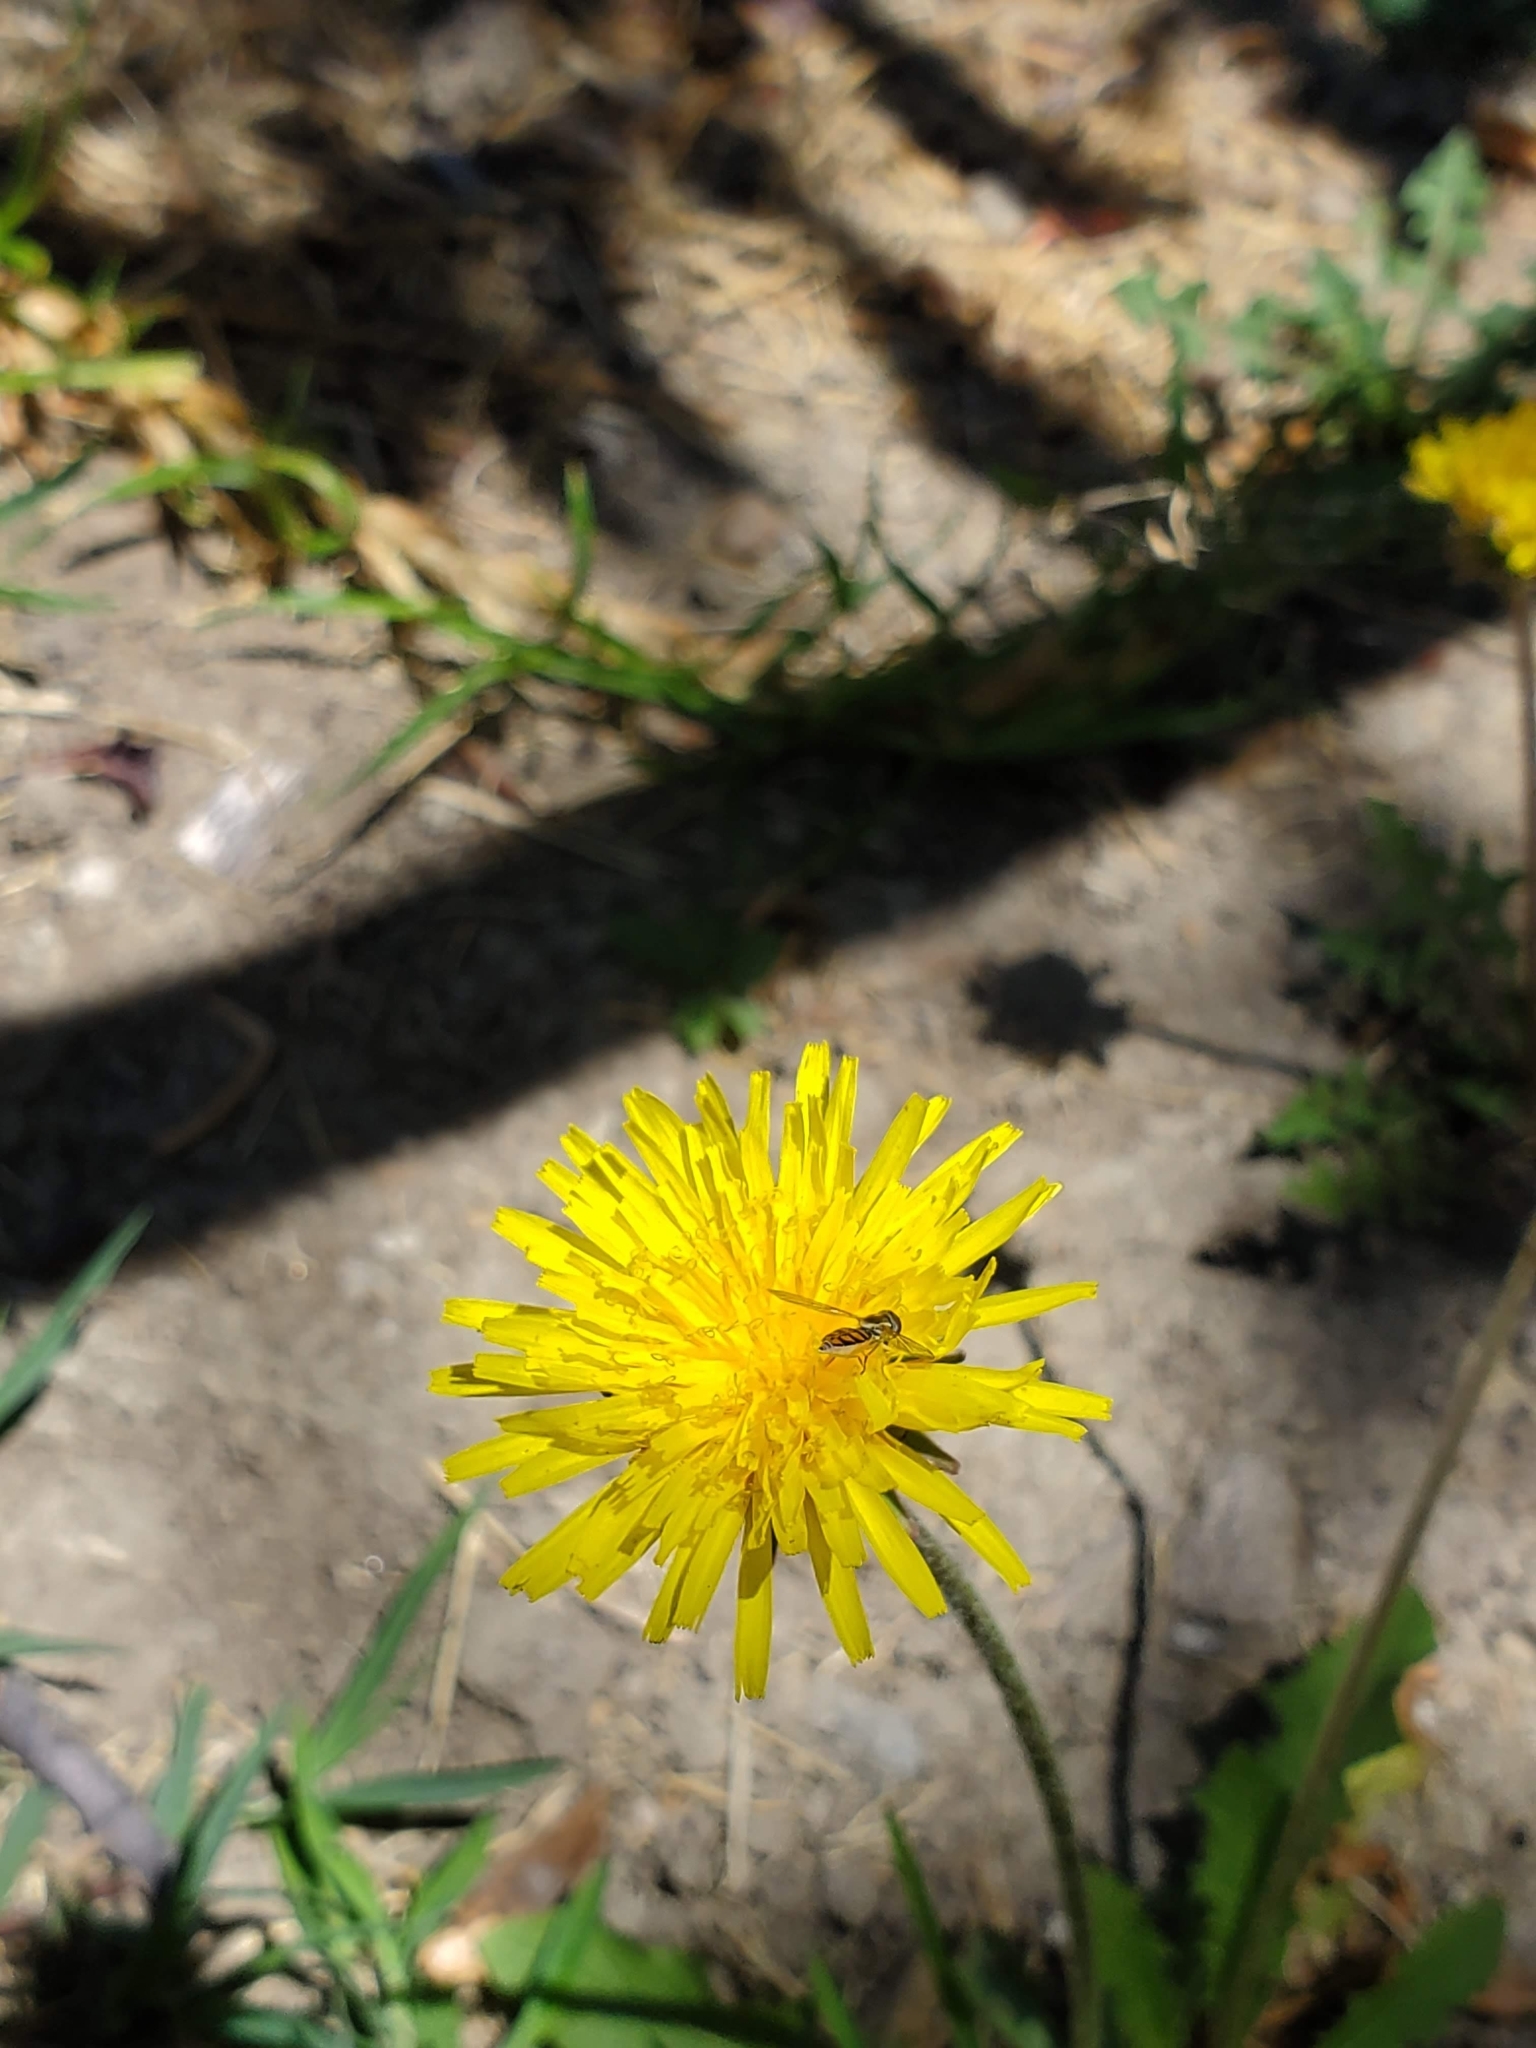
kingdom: Animalia
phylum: Arthropoda
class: Insecta
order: Diptera
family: Syrphidae
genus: Toxomerus
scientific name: Toxomerus marginatus
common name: Syrphid fly
